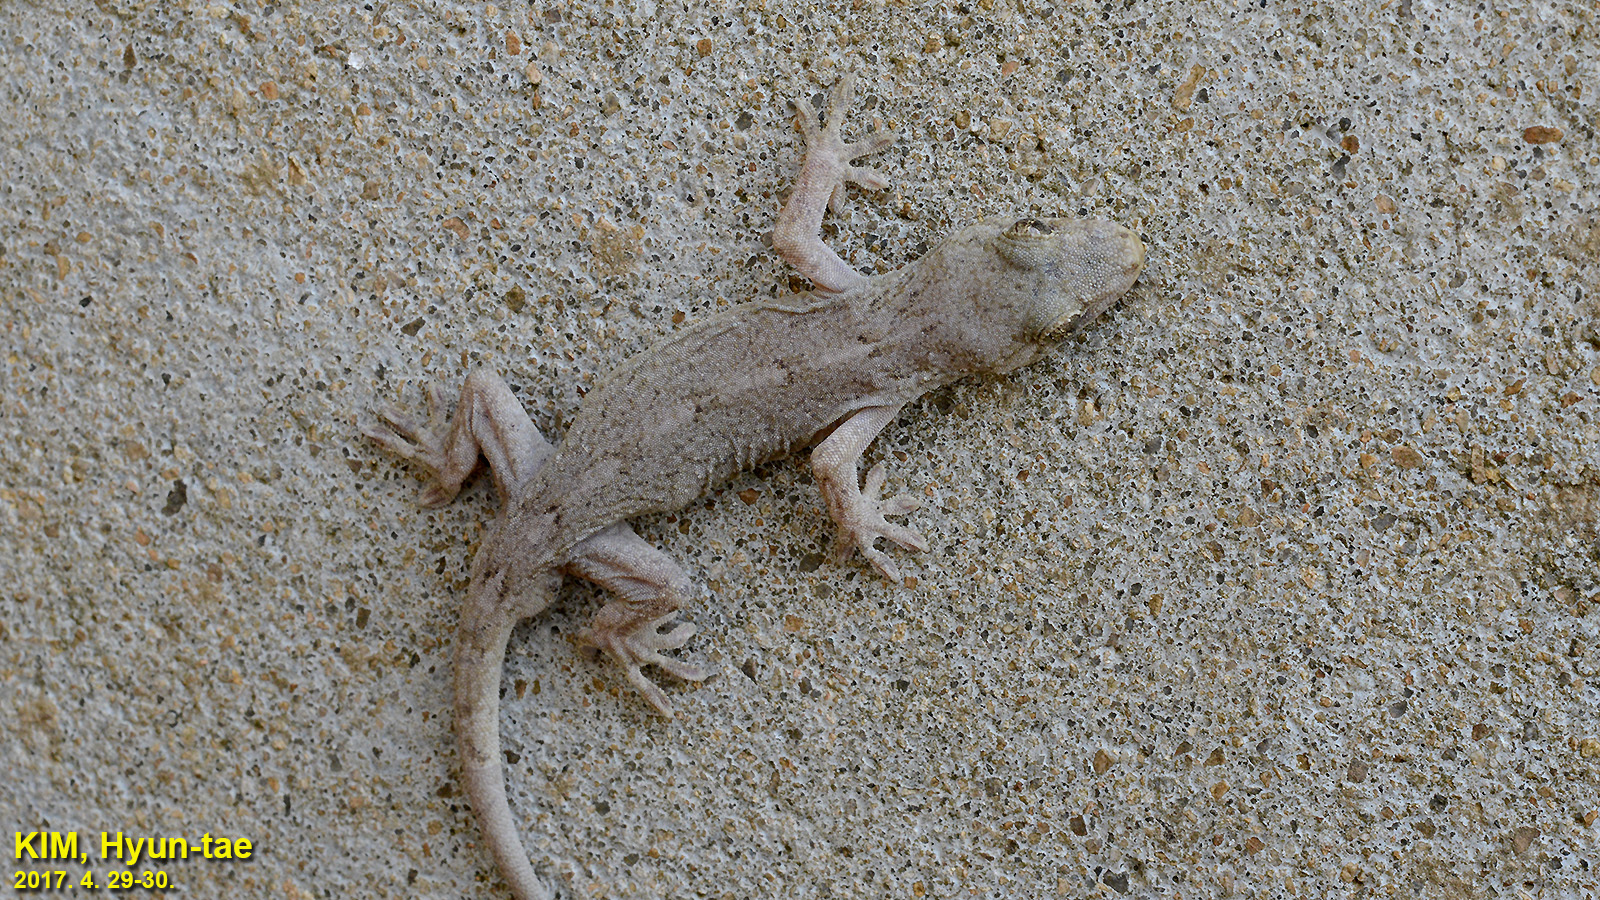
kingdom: Animalia
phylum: Chordata
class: Squamata
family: Gekkonidae
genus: Gekko
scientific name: Gekko japonicus
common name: Schlegel's japanese gecko
